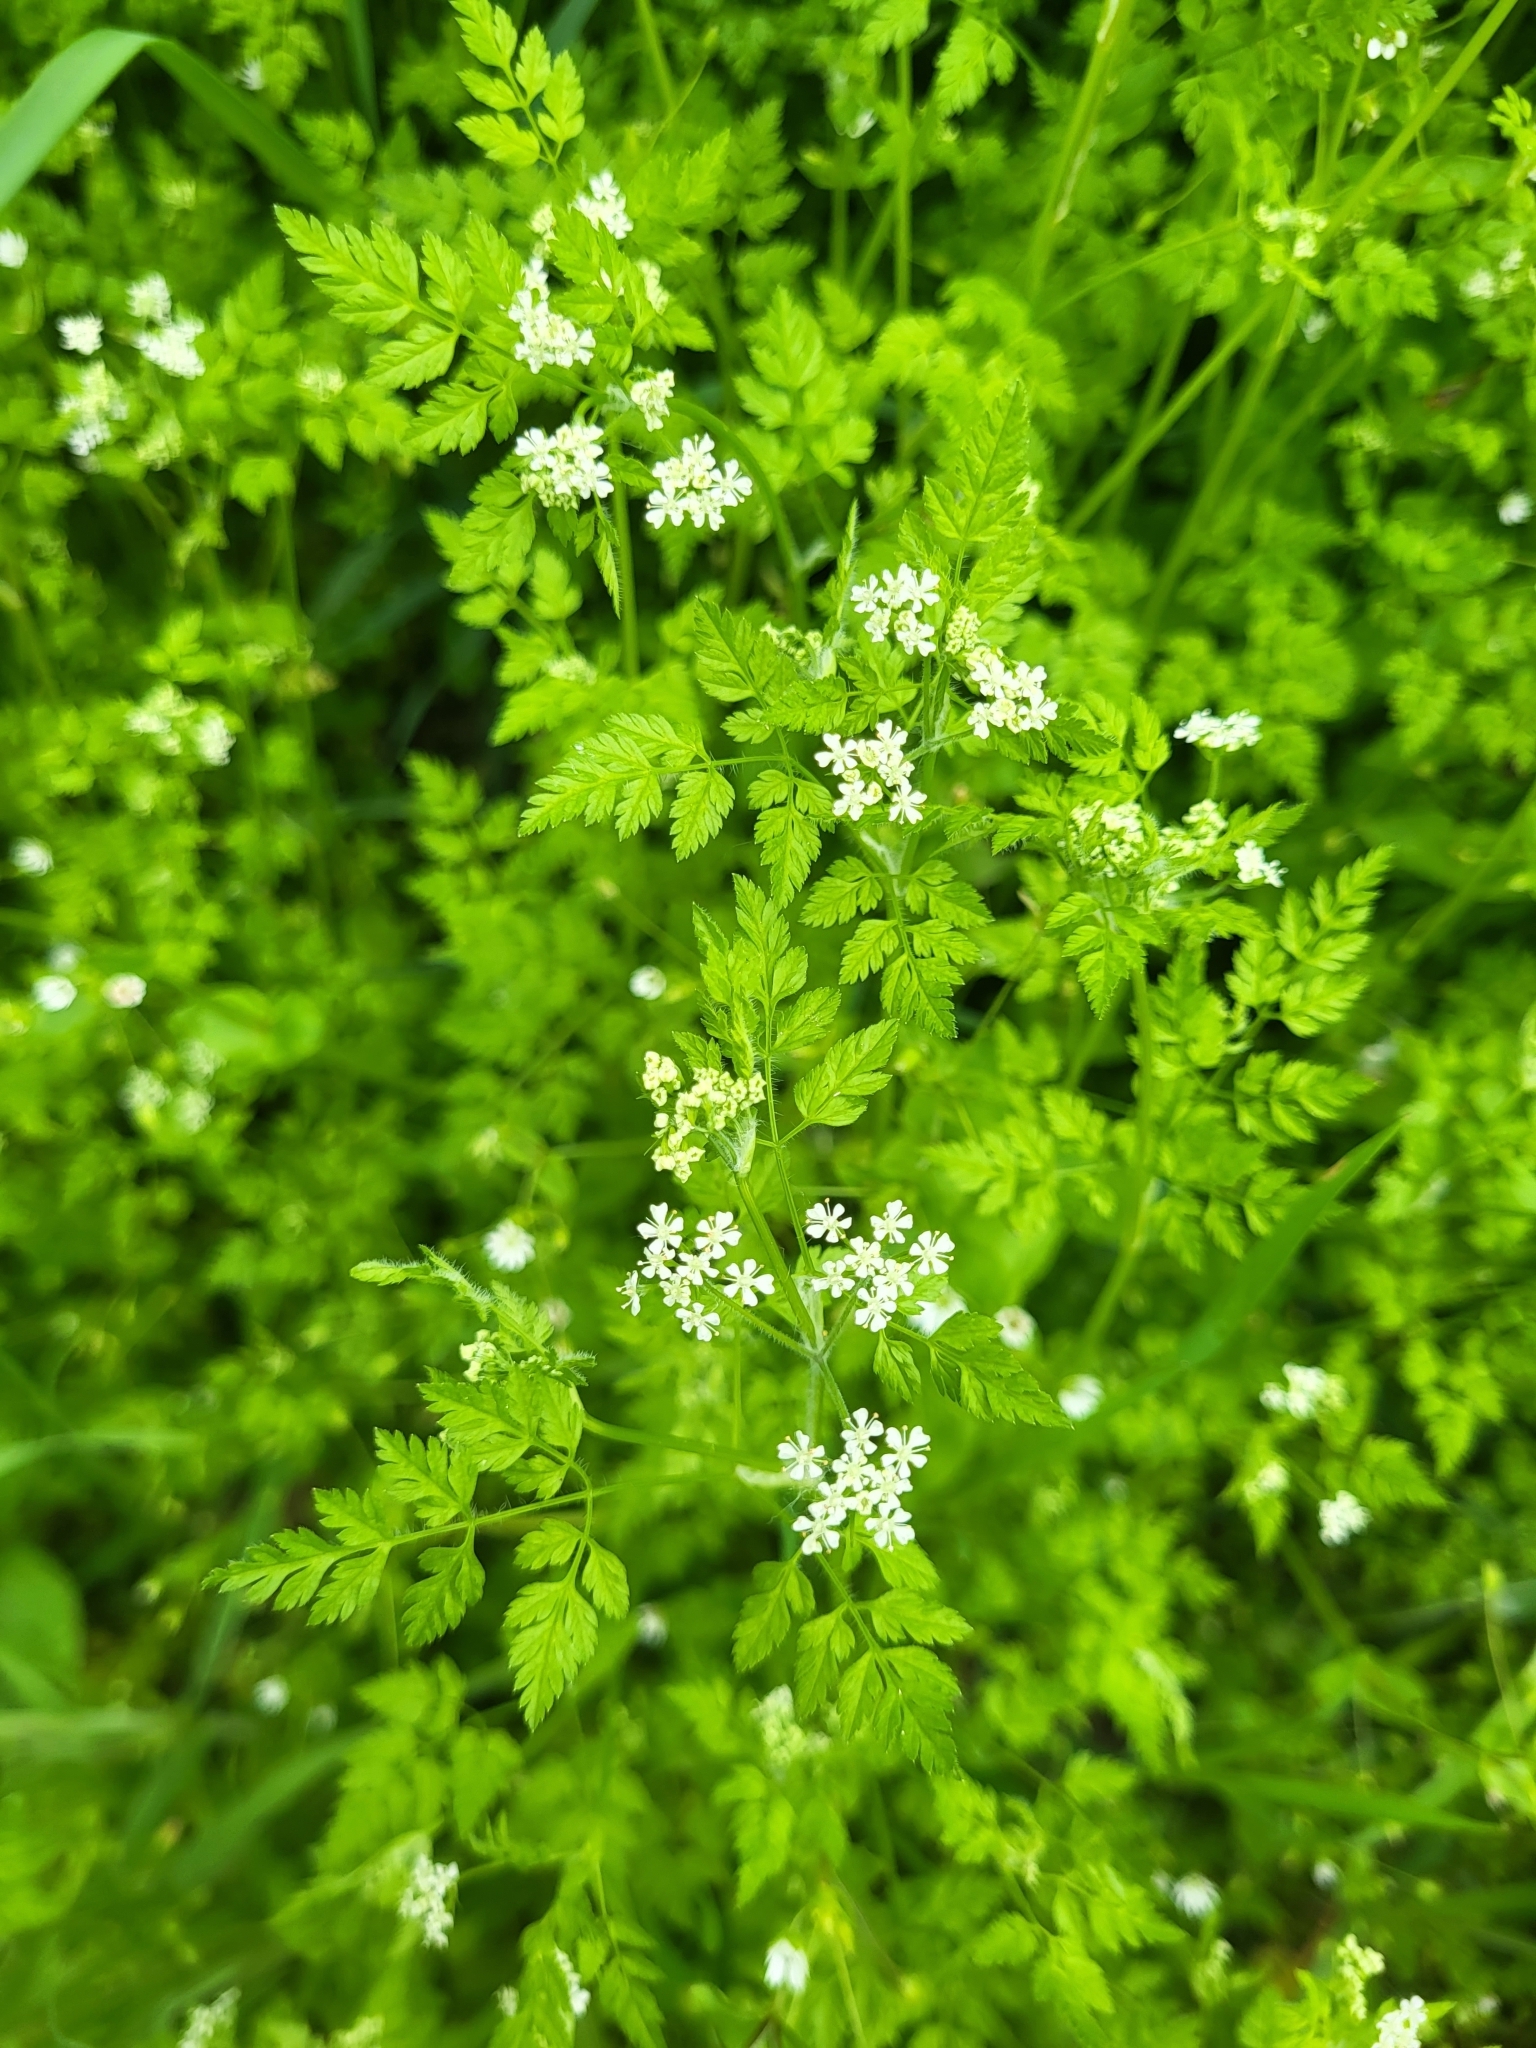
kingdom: Plantae
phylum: Tracheophyta
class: Magnoliopsida
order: Apiales
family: Apiaceae
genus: Anthriscus
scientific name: Anthriscus cerefolium
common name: Garden chervil
